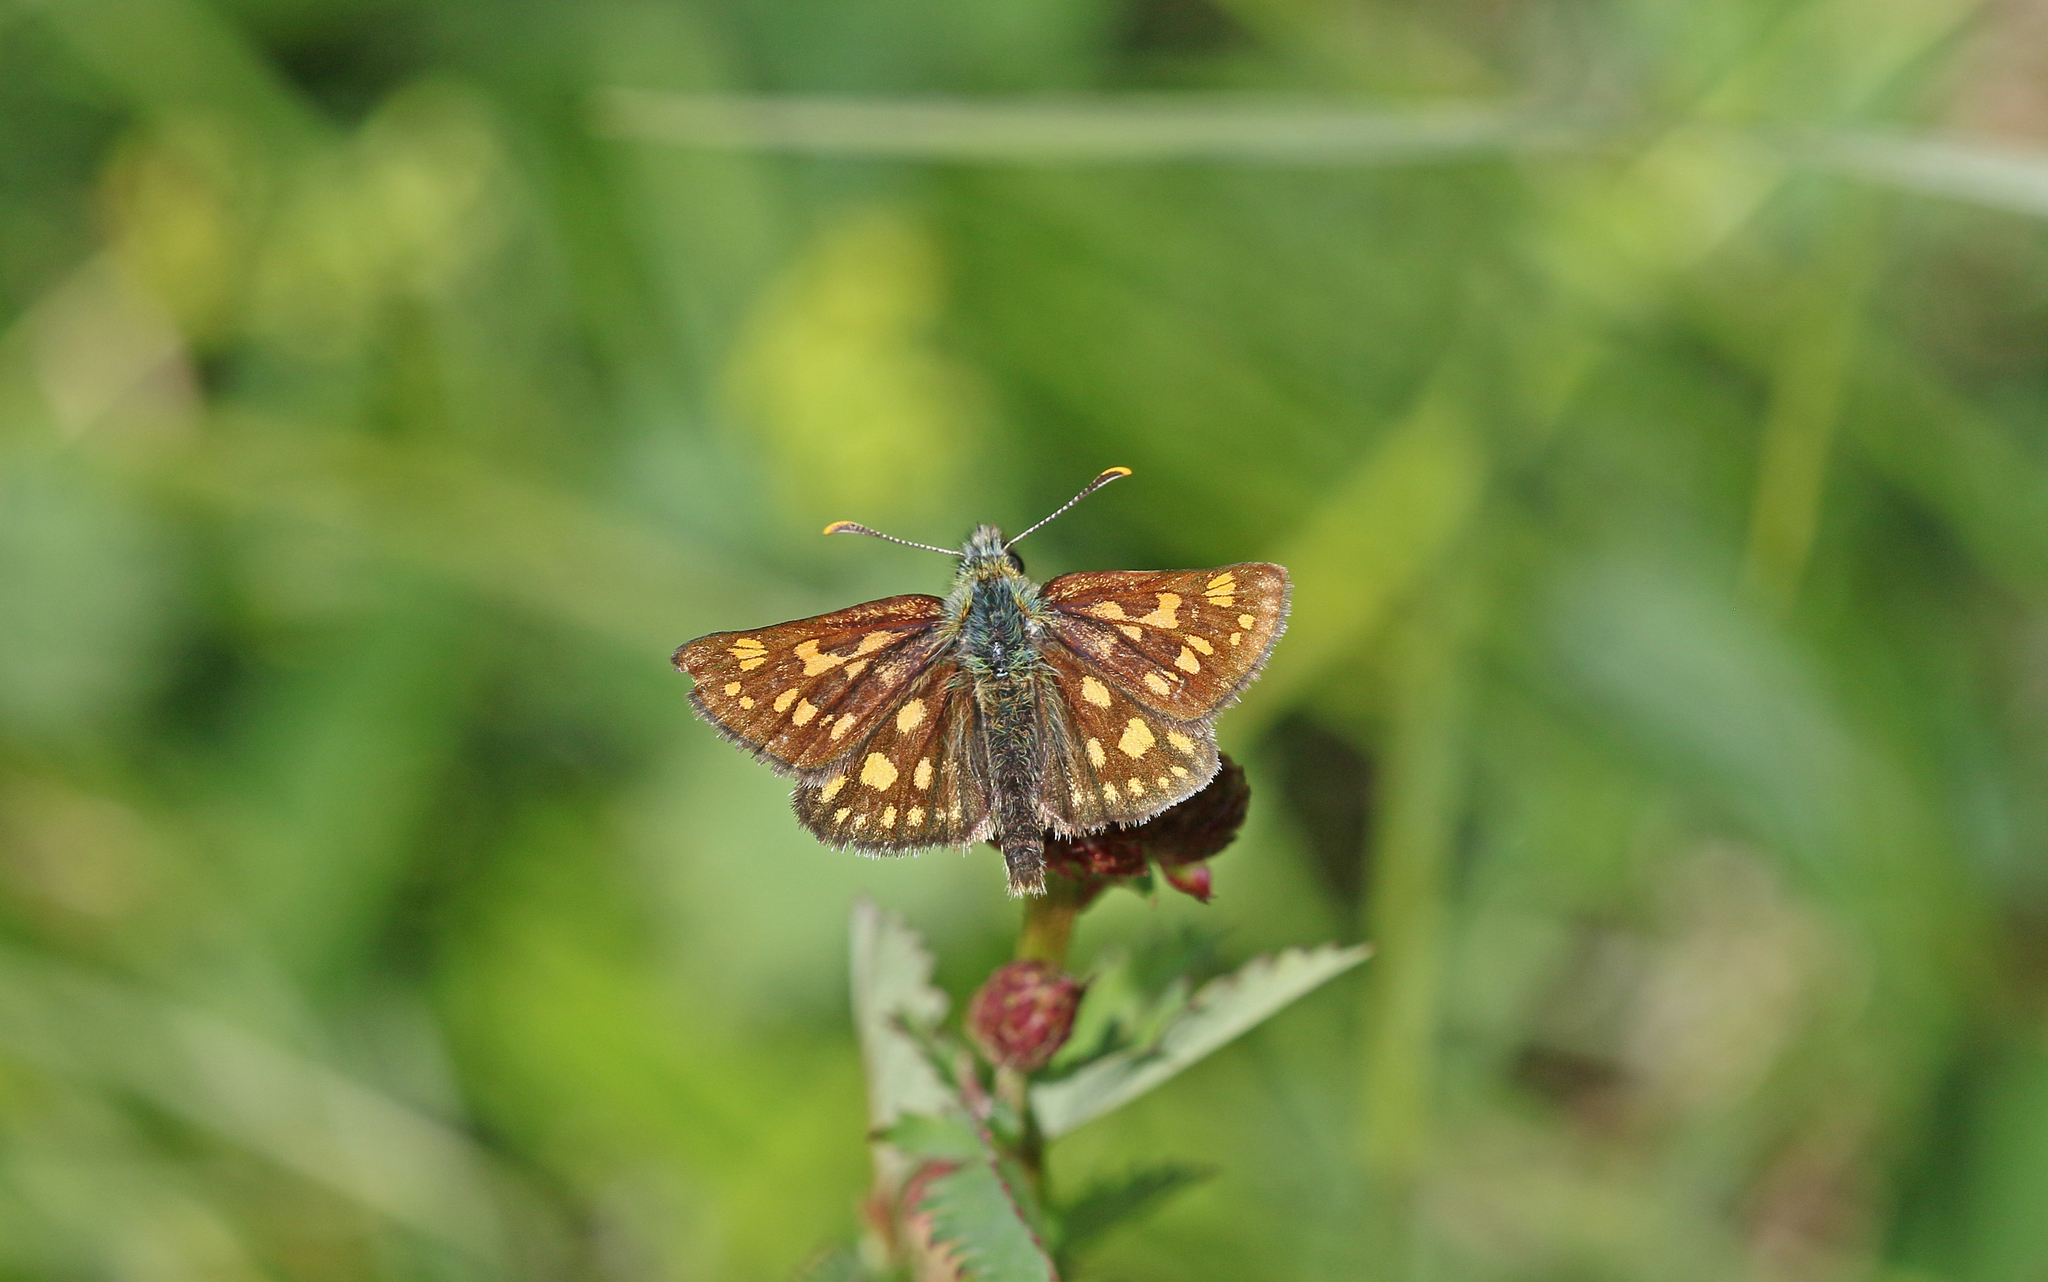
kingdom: Animalia
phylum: Arthropoda
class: Insecta
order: Lepidoptera
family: Hesperiidae
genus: Carterocephalus
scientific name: Carterocephalus palaemon
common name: Chequered skipper
